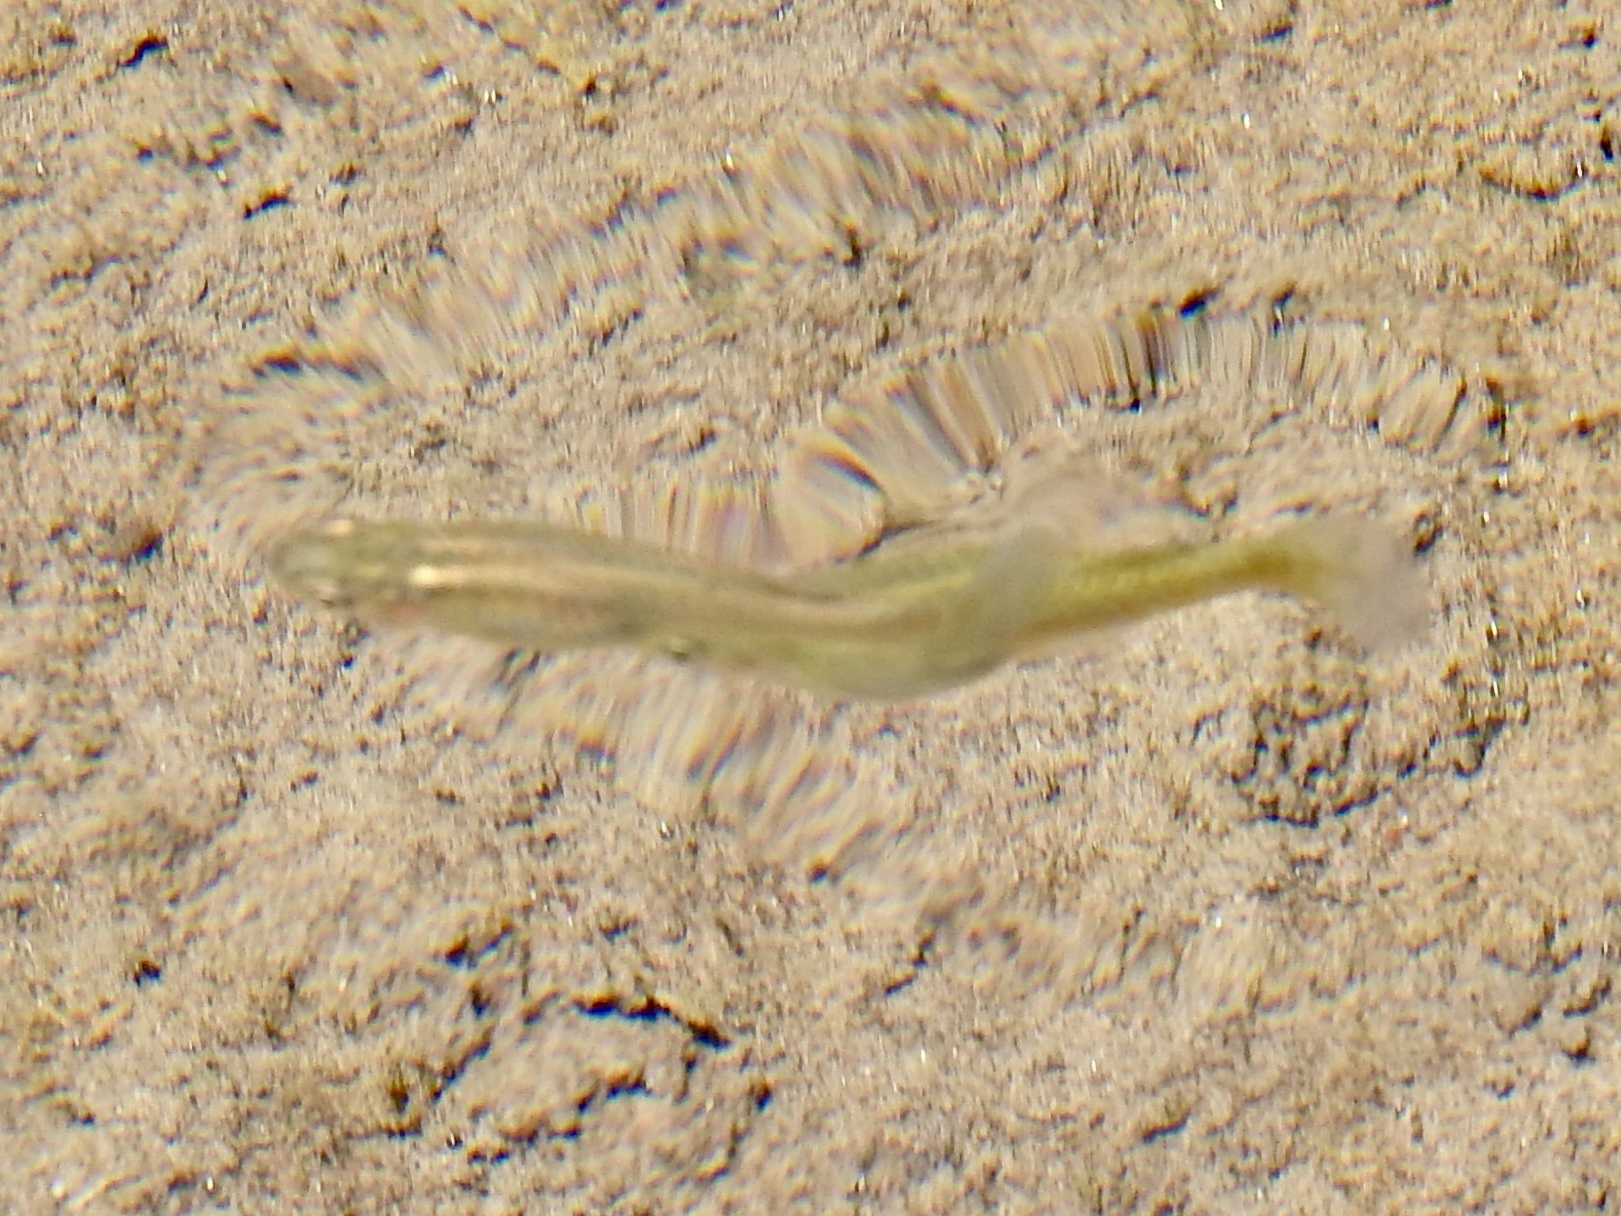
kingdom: Animalia
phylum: Chordata
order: Cyprinodontiformes
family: Poeciliidae
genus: Gambusia
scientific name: Gambusia affinis
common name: Mosquitofish
